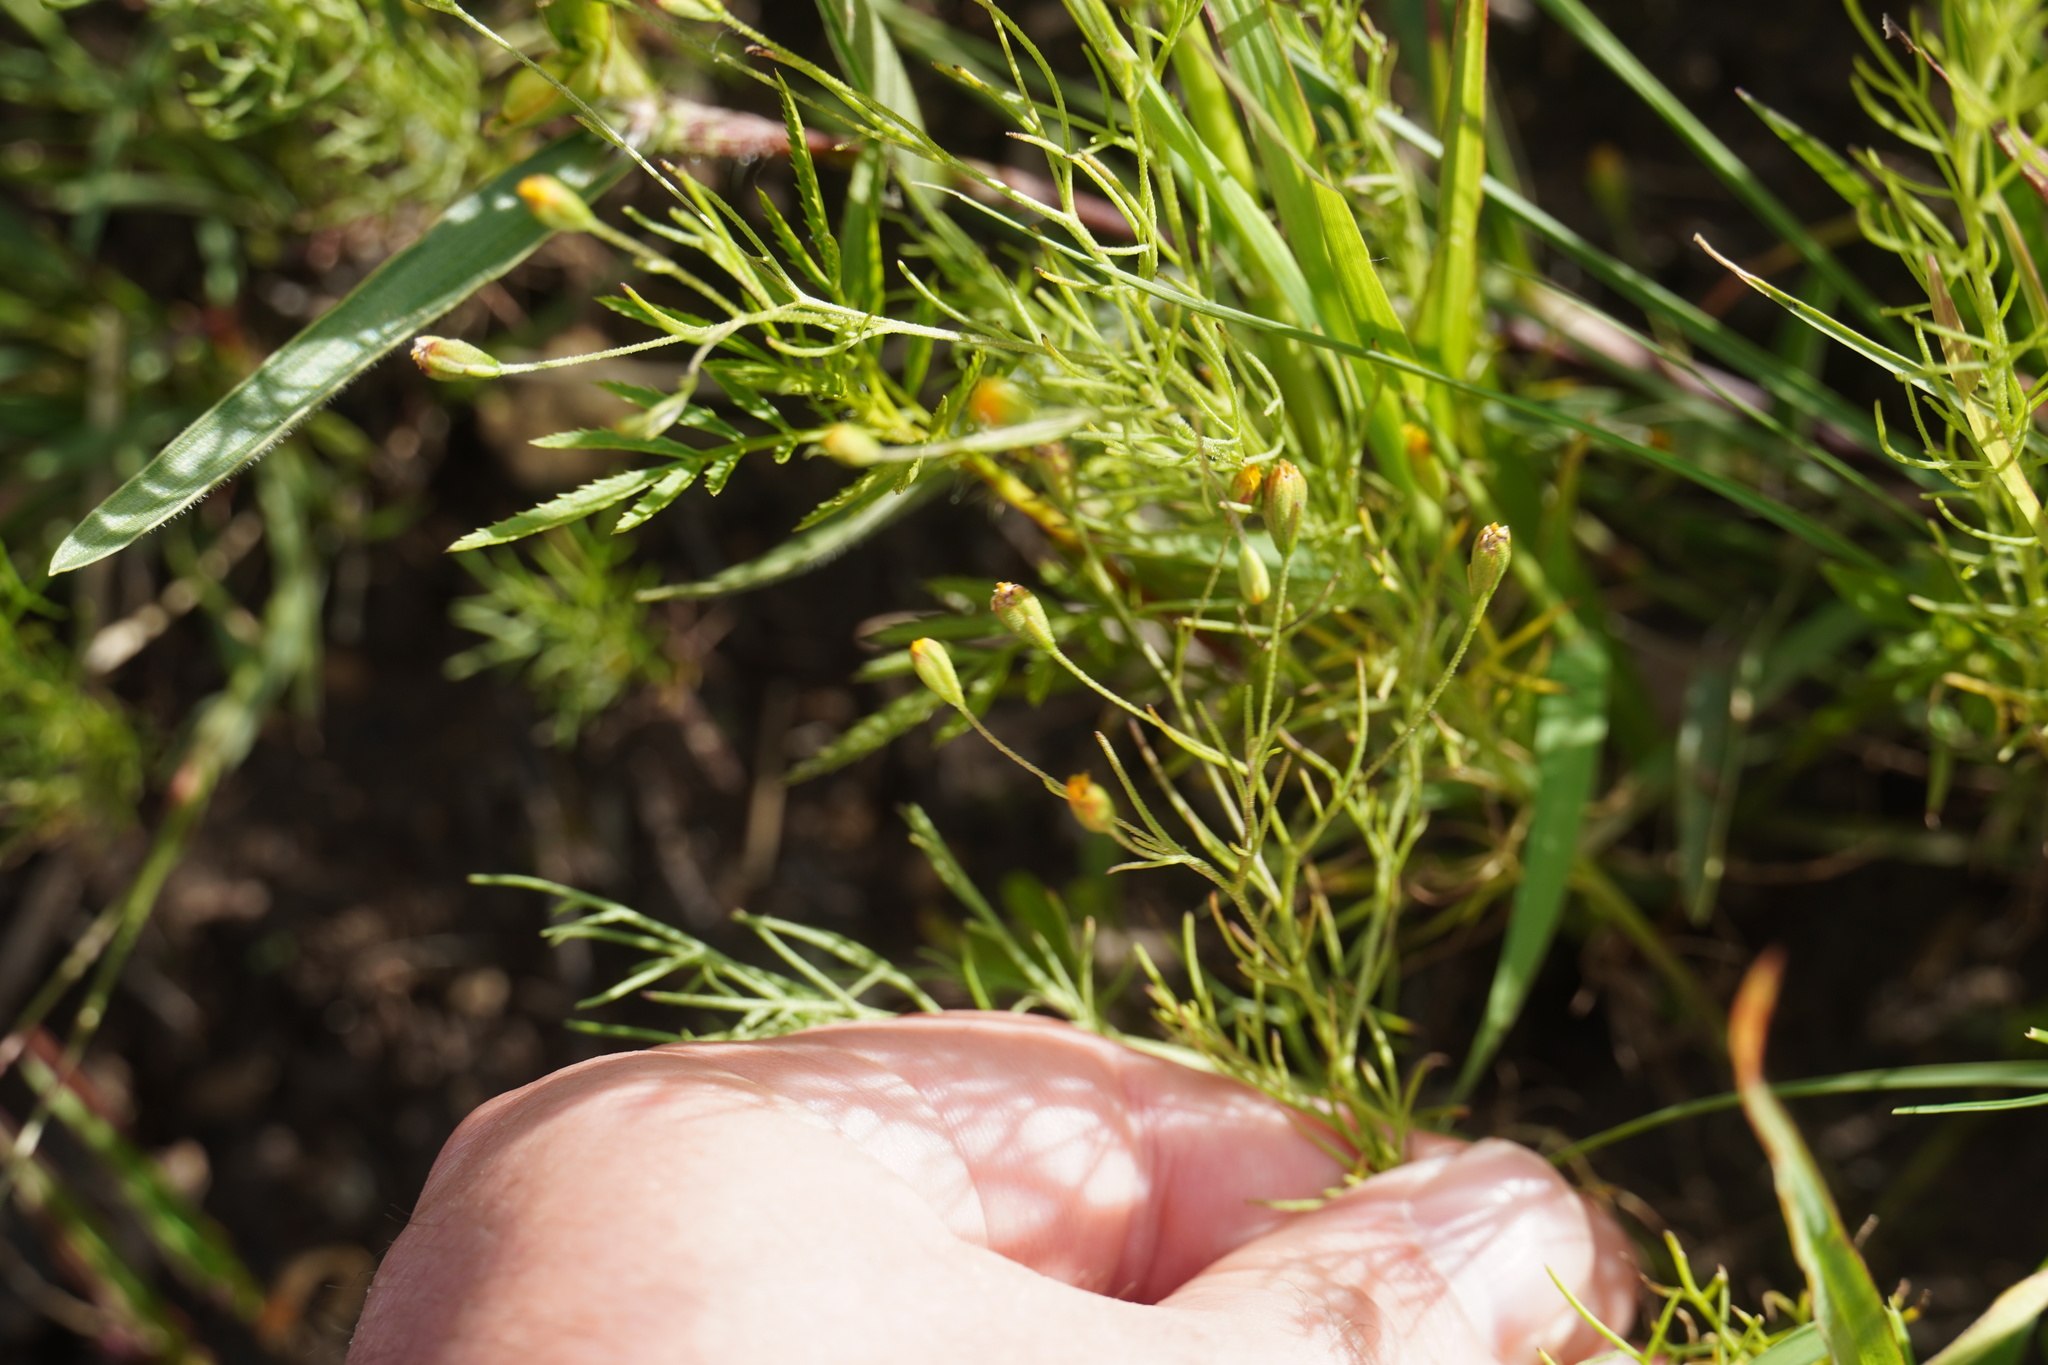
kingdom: Plantae
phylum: Tracheophyta
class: Magnoliopsida
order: Asterales
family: Asteraceae
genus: Schkuhria
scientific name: Schkuhria pinnata
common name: Dwarf marigold
